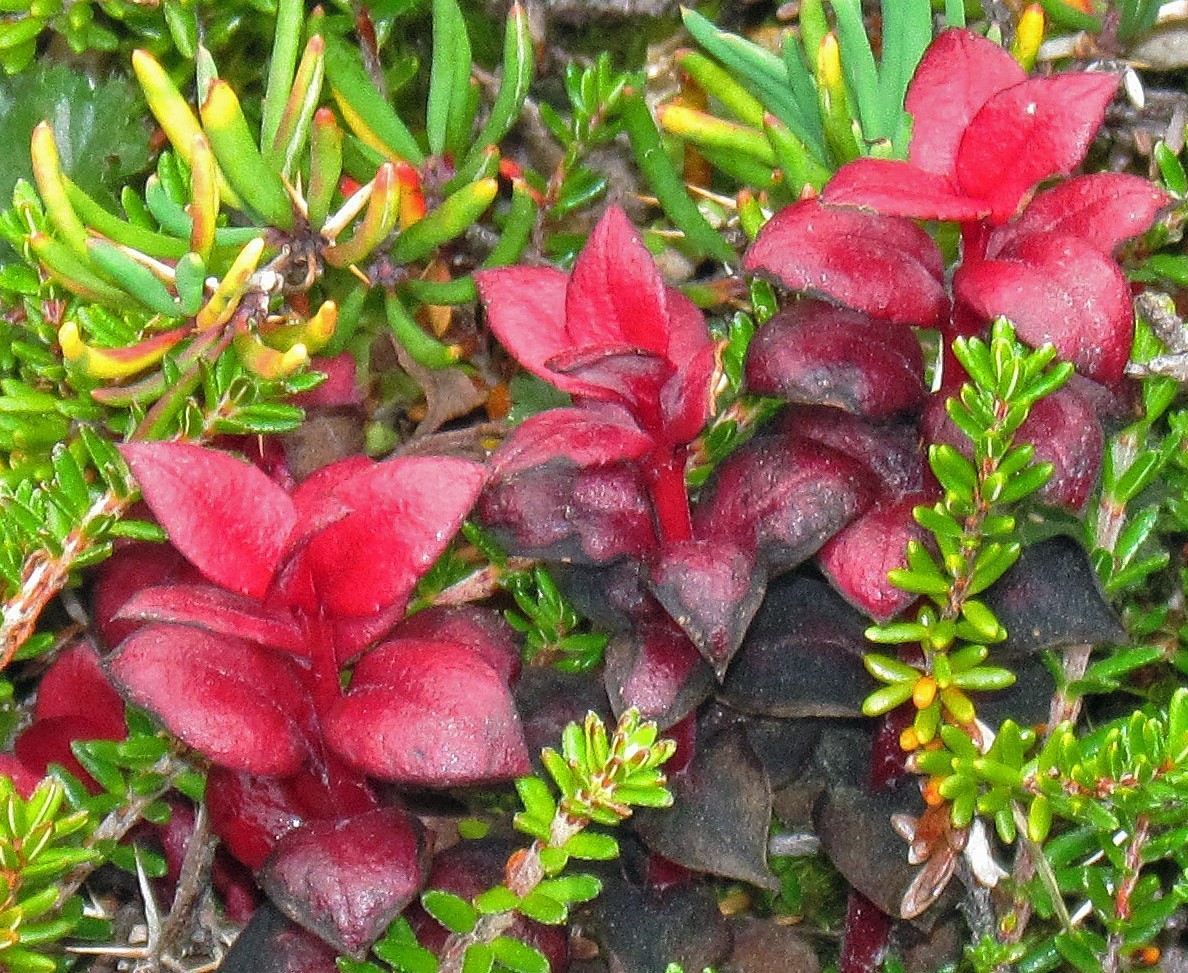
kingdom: Fungi
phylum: Basidiomycota
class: Exobasidiomycetes
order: Exobasidiales
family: Exobasidiaceae
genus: Exobasidium
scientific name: Exobasidium gomezii
